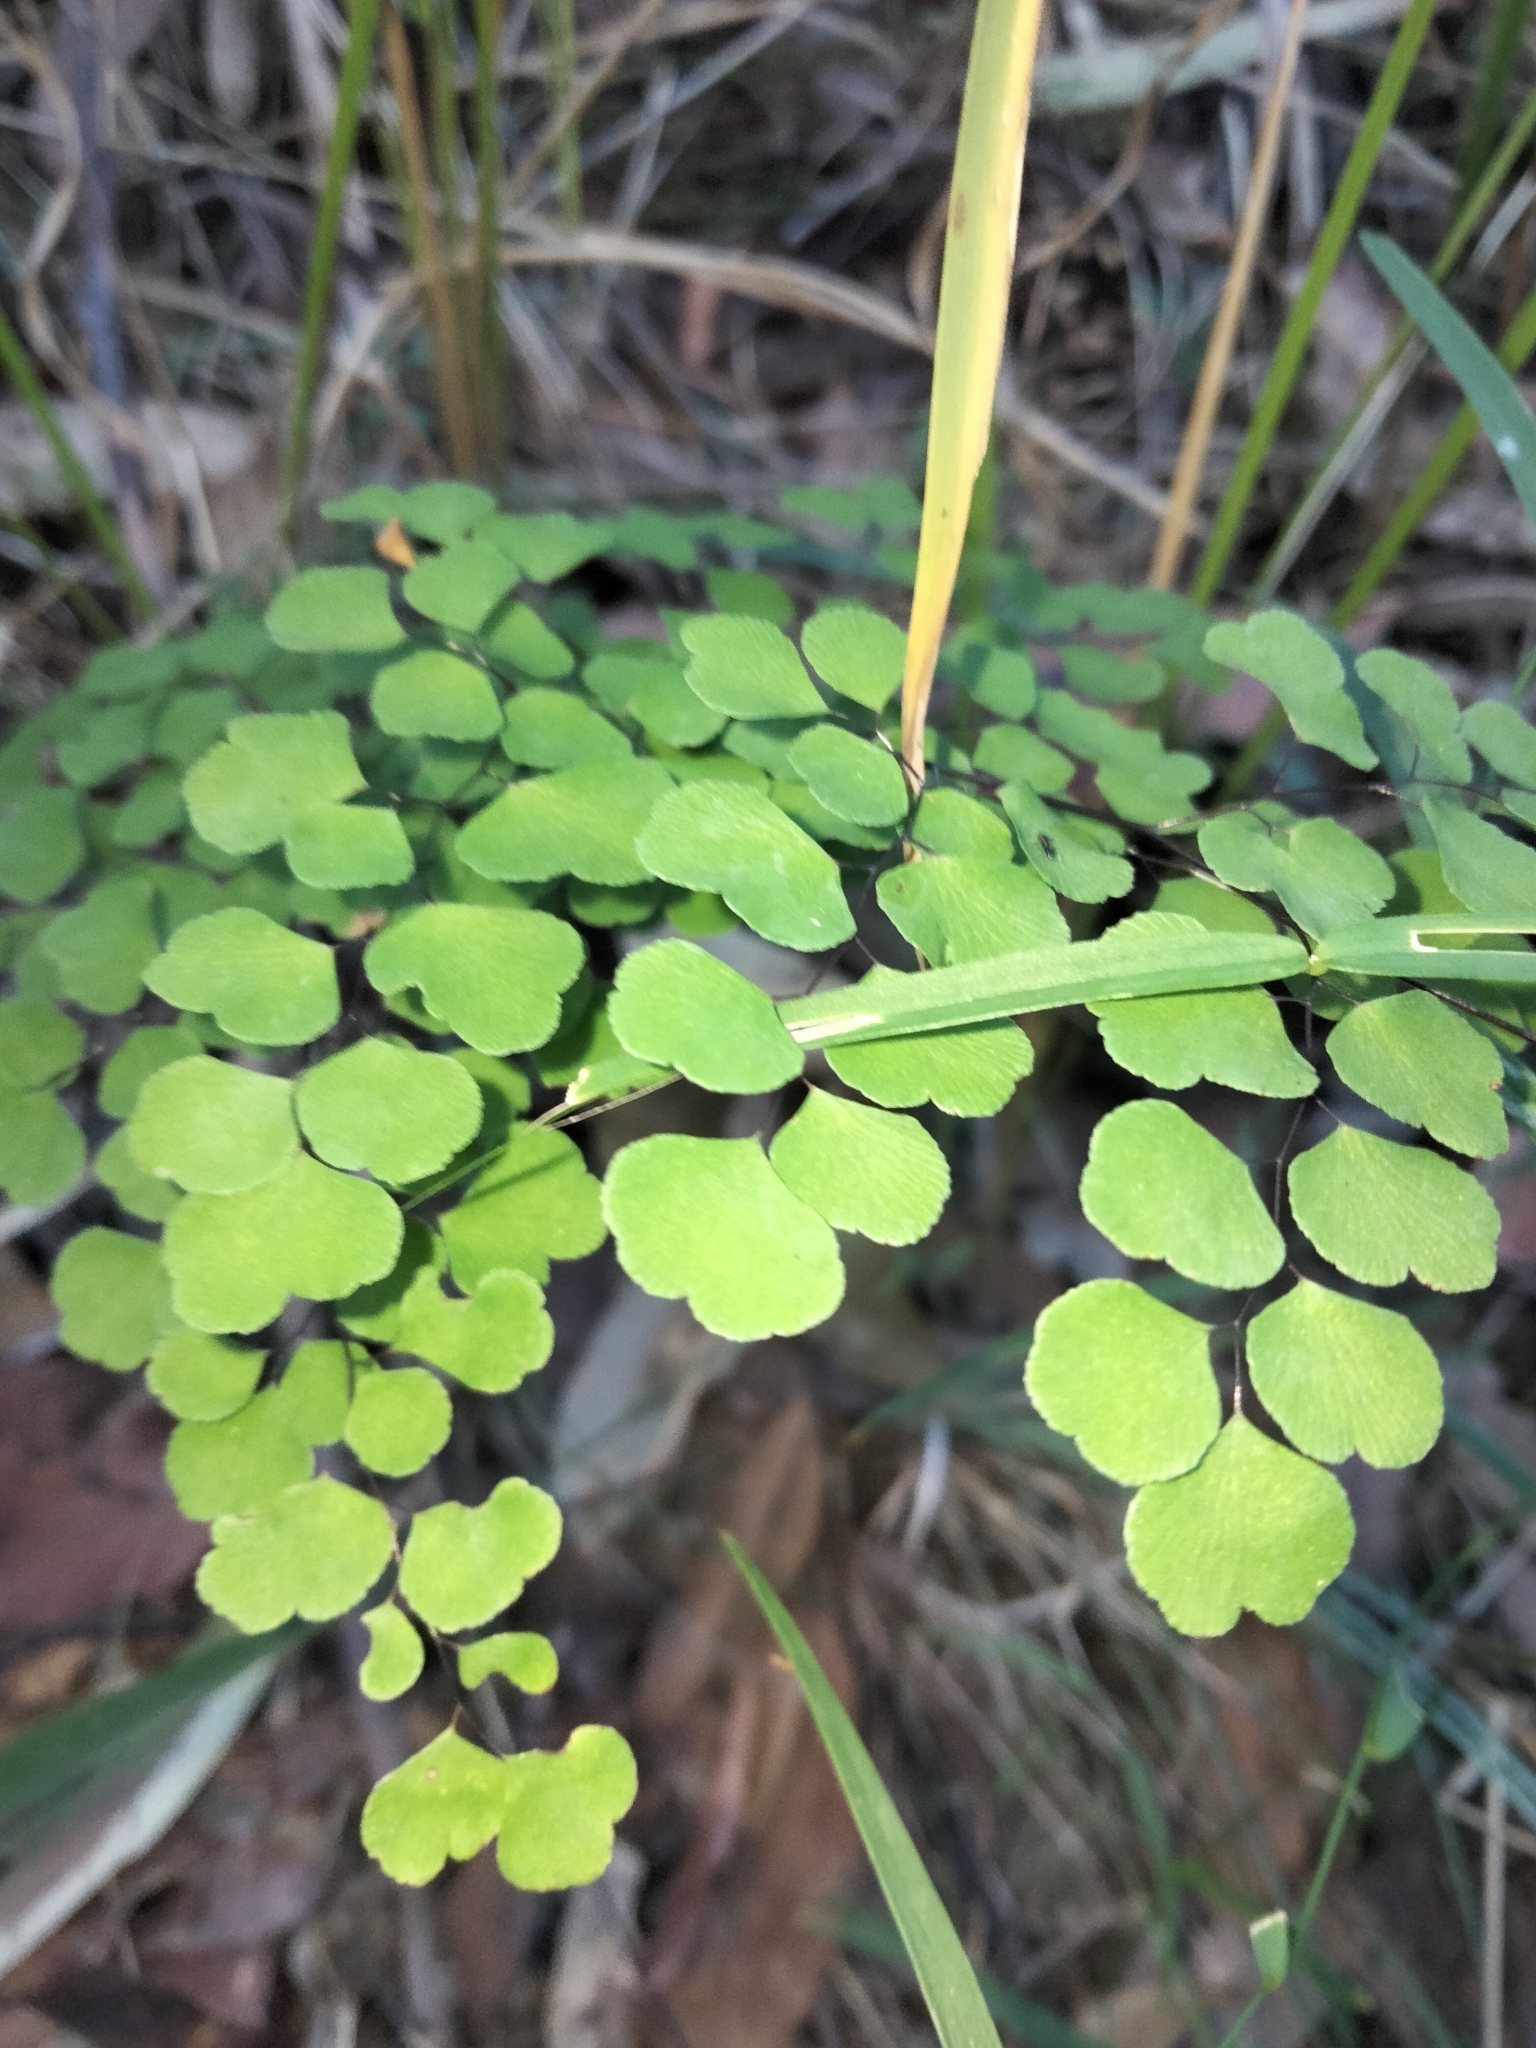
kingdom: Plantae
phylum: Tracheophyta
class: Polypodiopsida
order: Polypodiales
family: Pteridaceae
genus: Adiantum
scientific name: Adiantum aethiopicum
